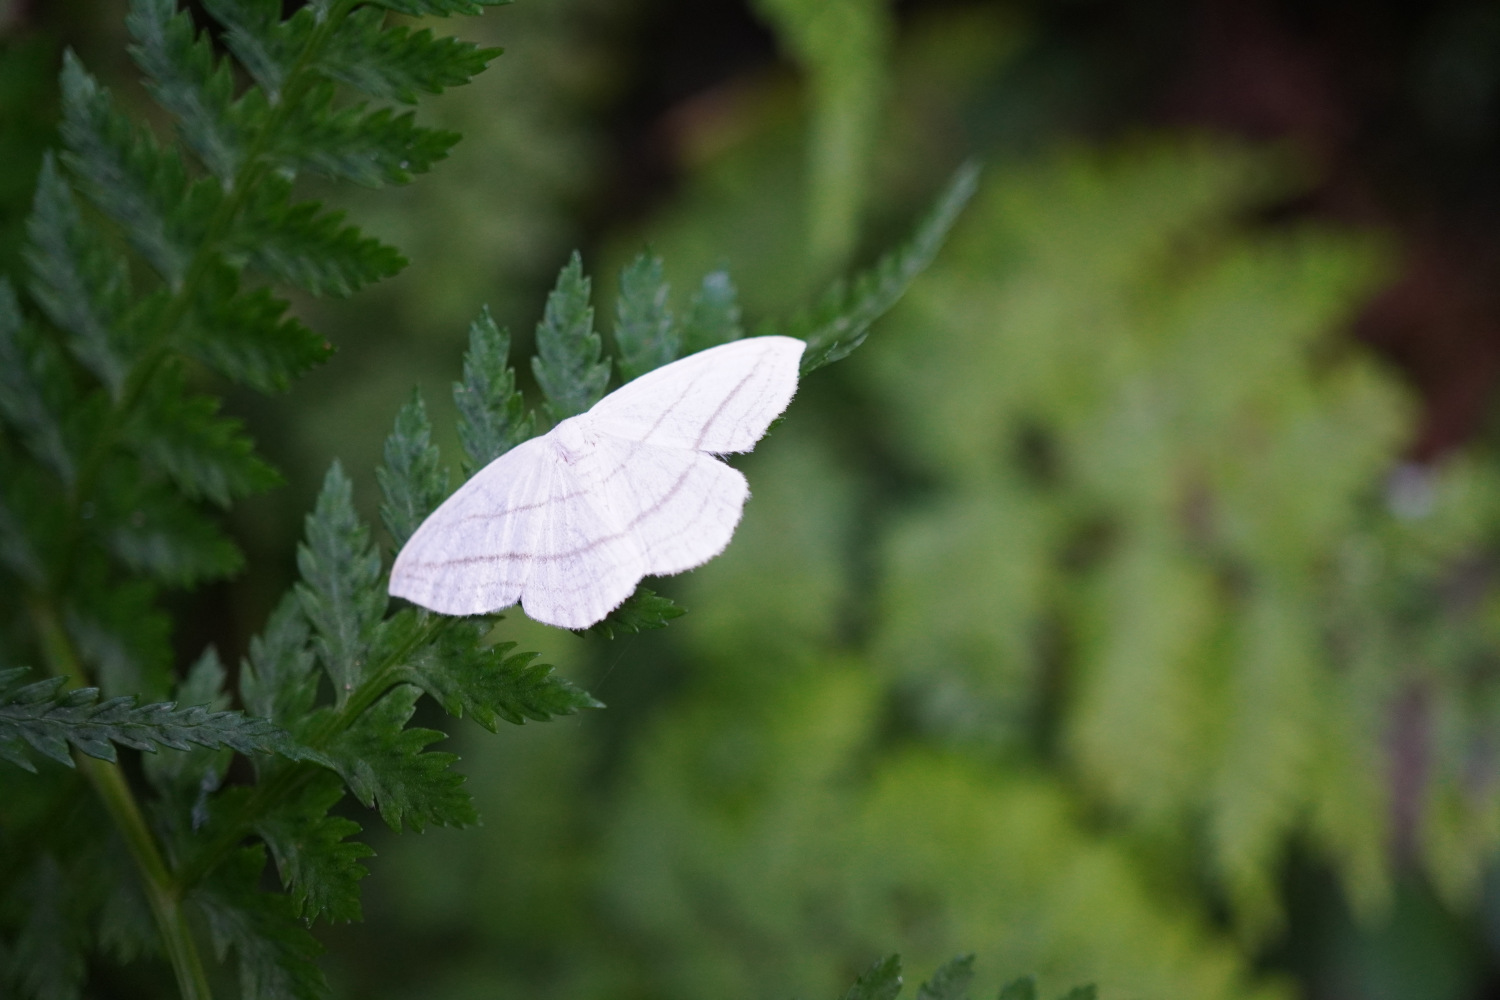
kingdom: Animalia
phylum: Arthropoda
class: Insecta
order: Lepidoptera
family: Drepanidae
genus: Ditrigona
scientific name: Ditrigona conflexaria
